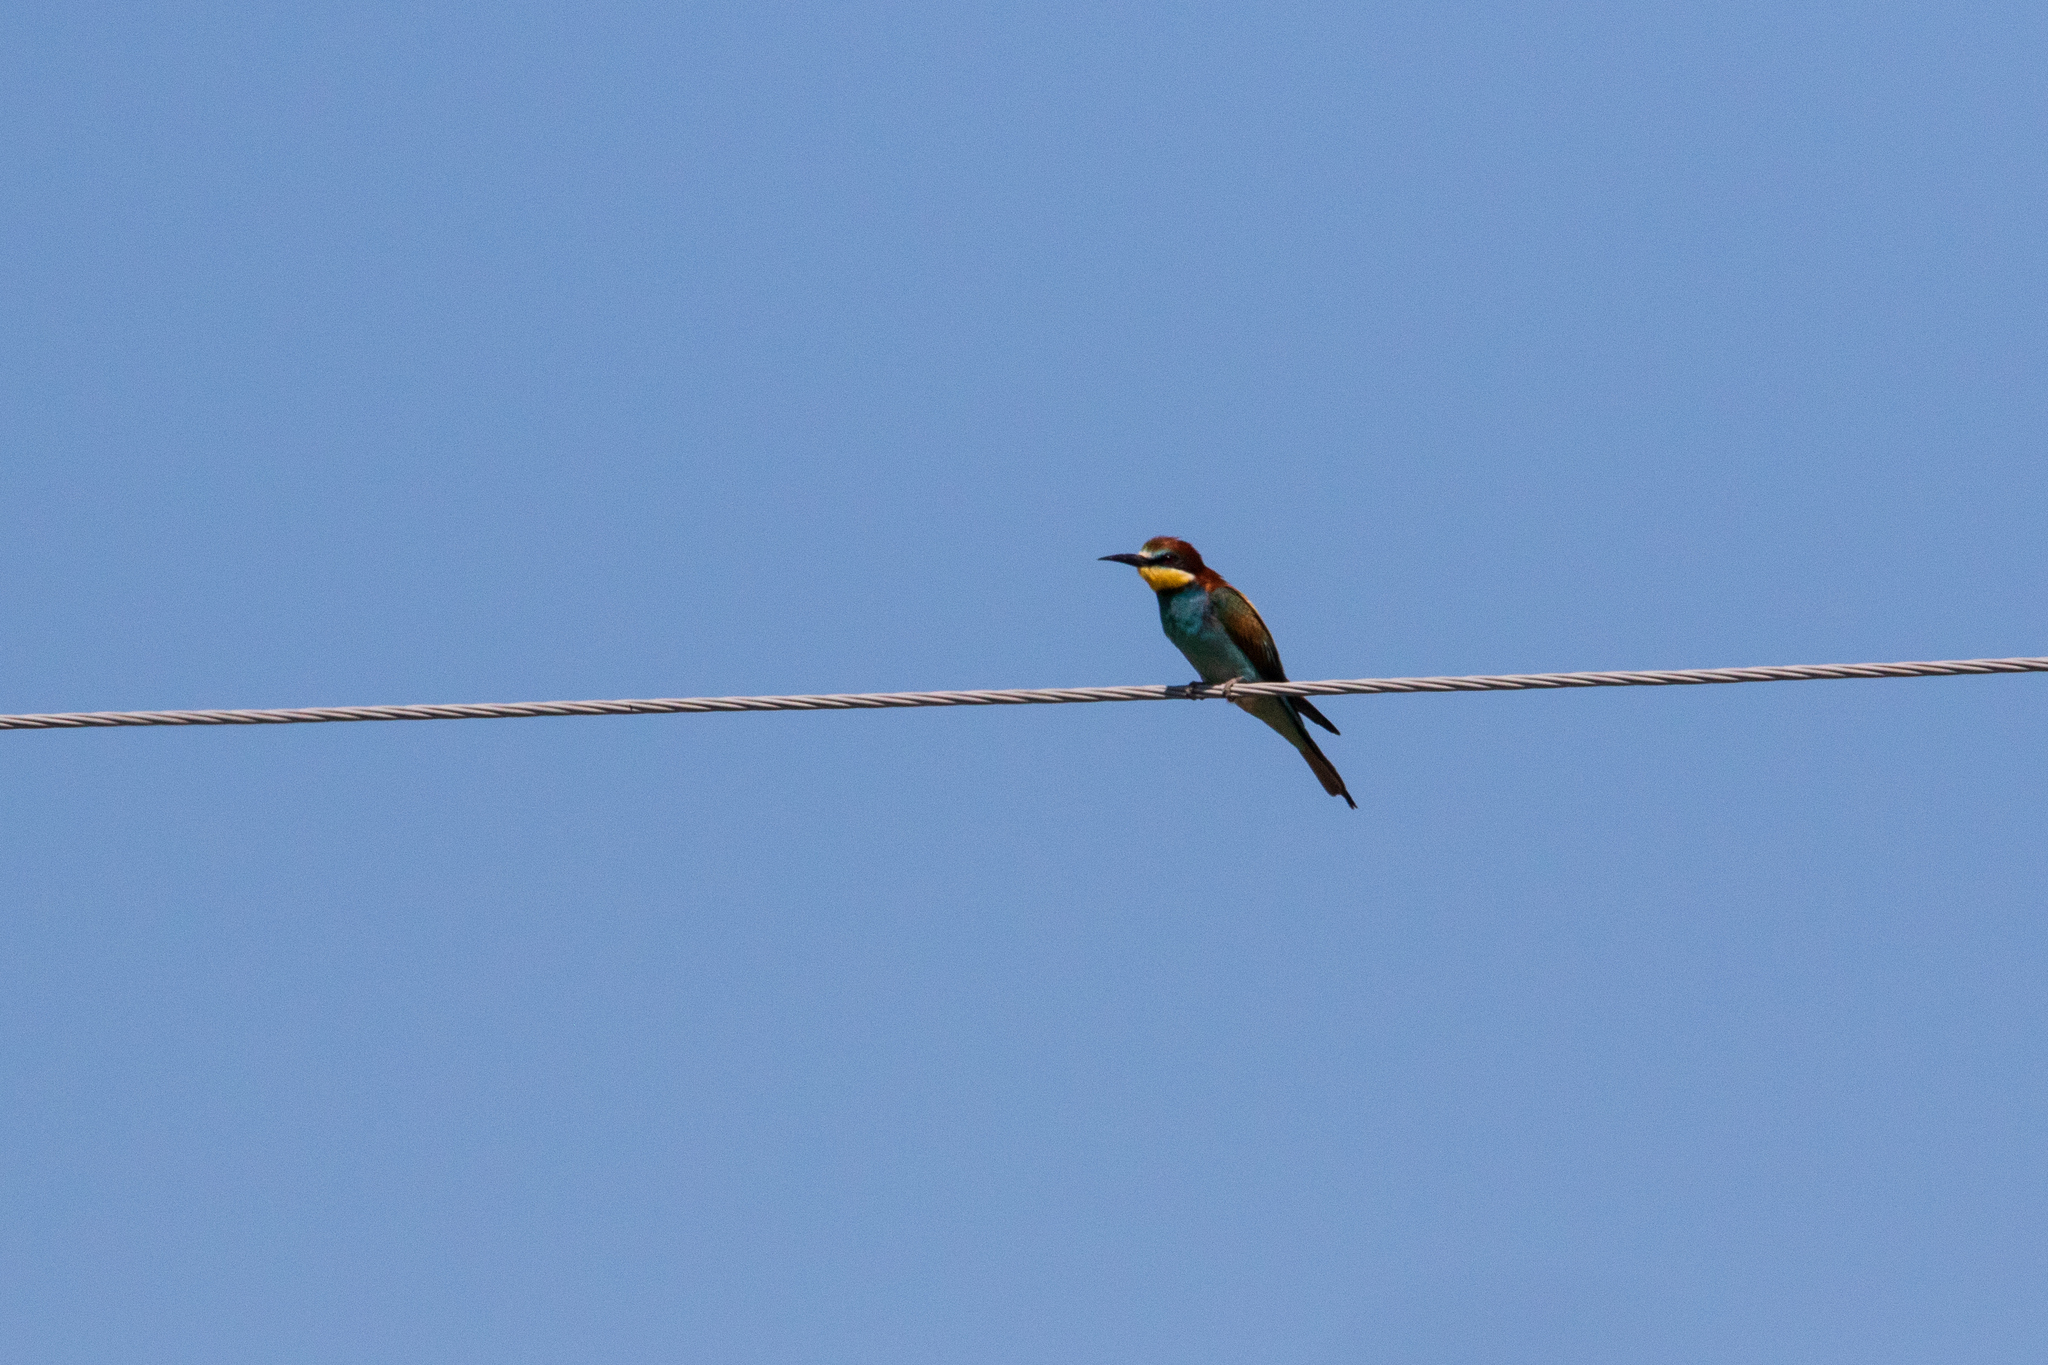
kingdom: Animalia
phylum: Chordata
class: Aves
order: Coraciiformes
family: Meropidae
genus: Merops
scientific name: Merops apiaster
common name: European bee-eater
